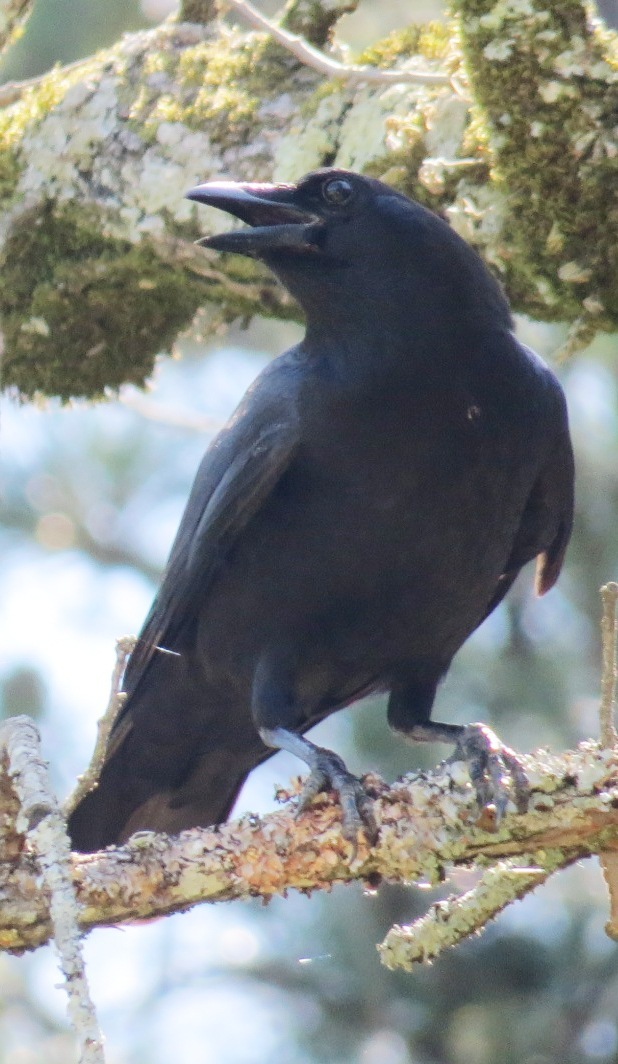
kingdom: Animalia
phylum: Chordata
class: Aves
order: Passeriformes
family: Corvidae
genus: Corvus
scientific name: Corvus ossifragus
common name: Fish crow
